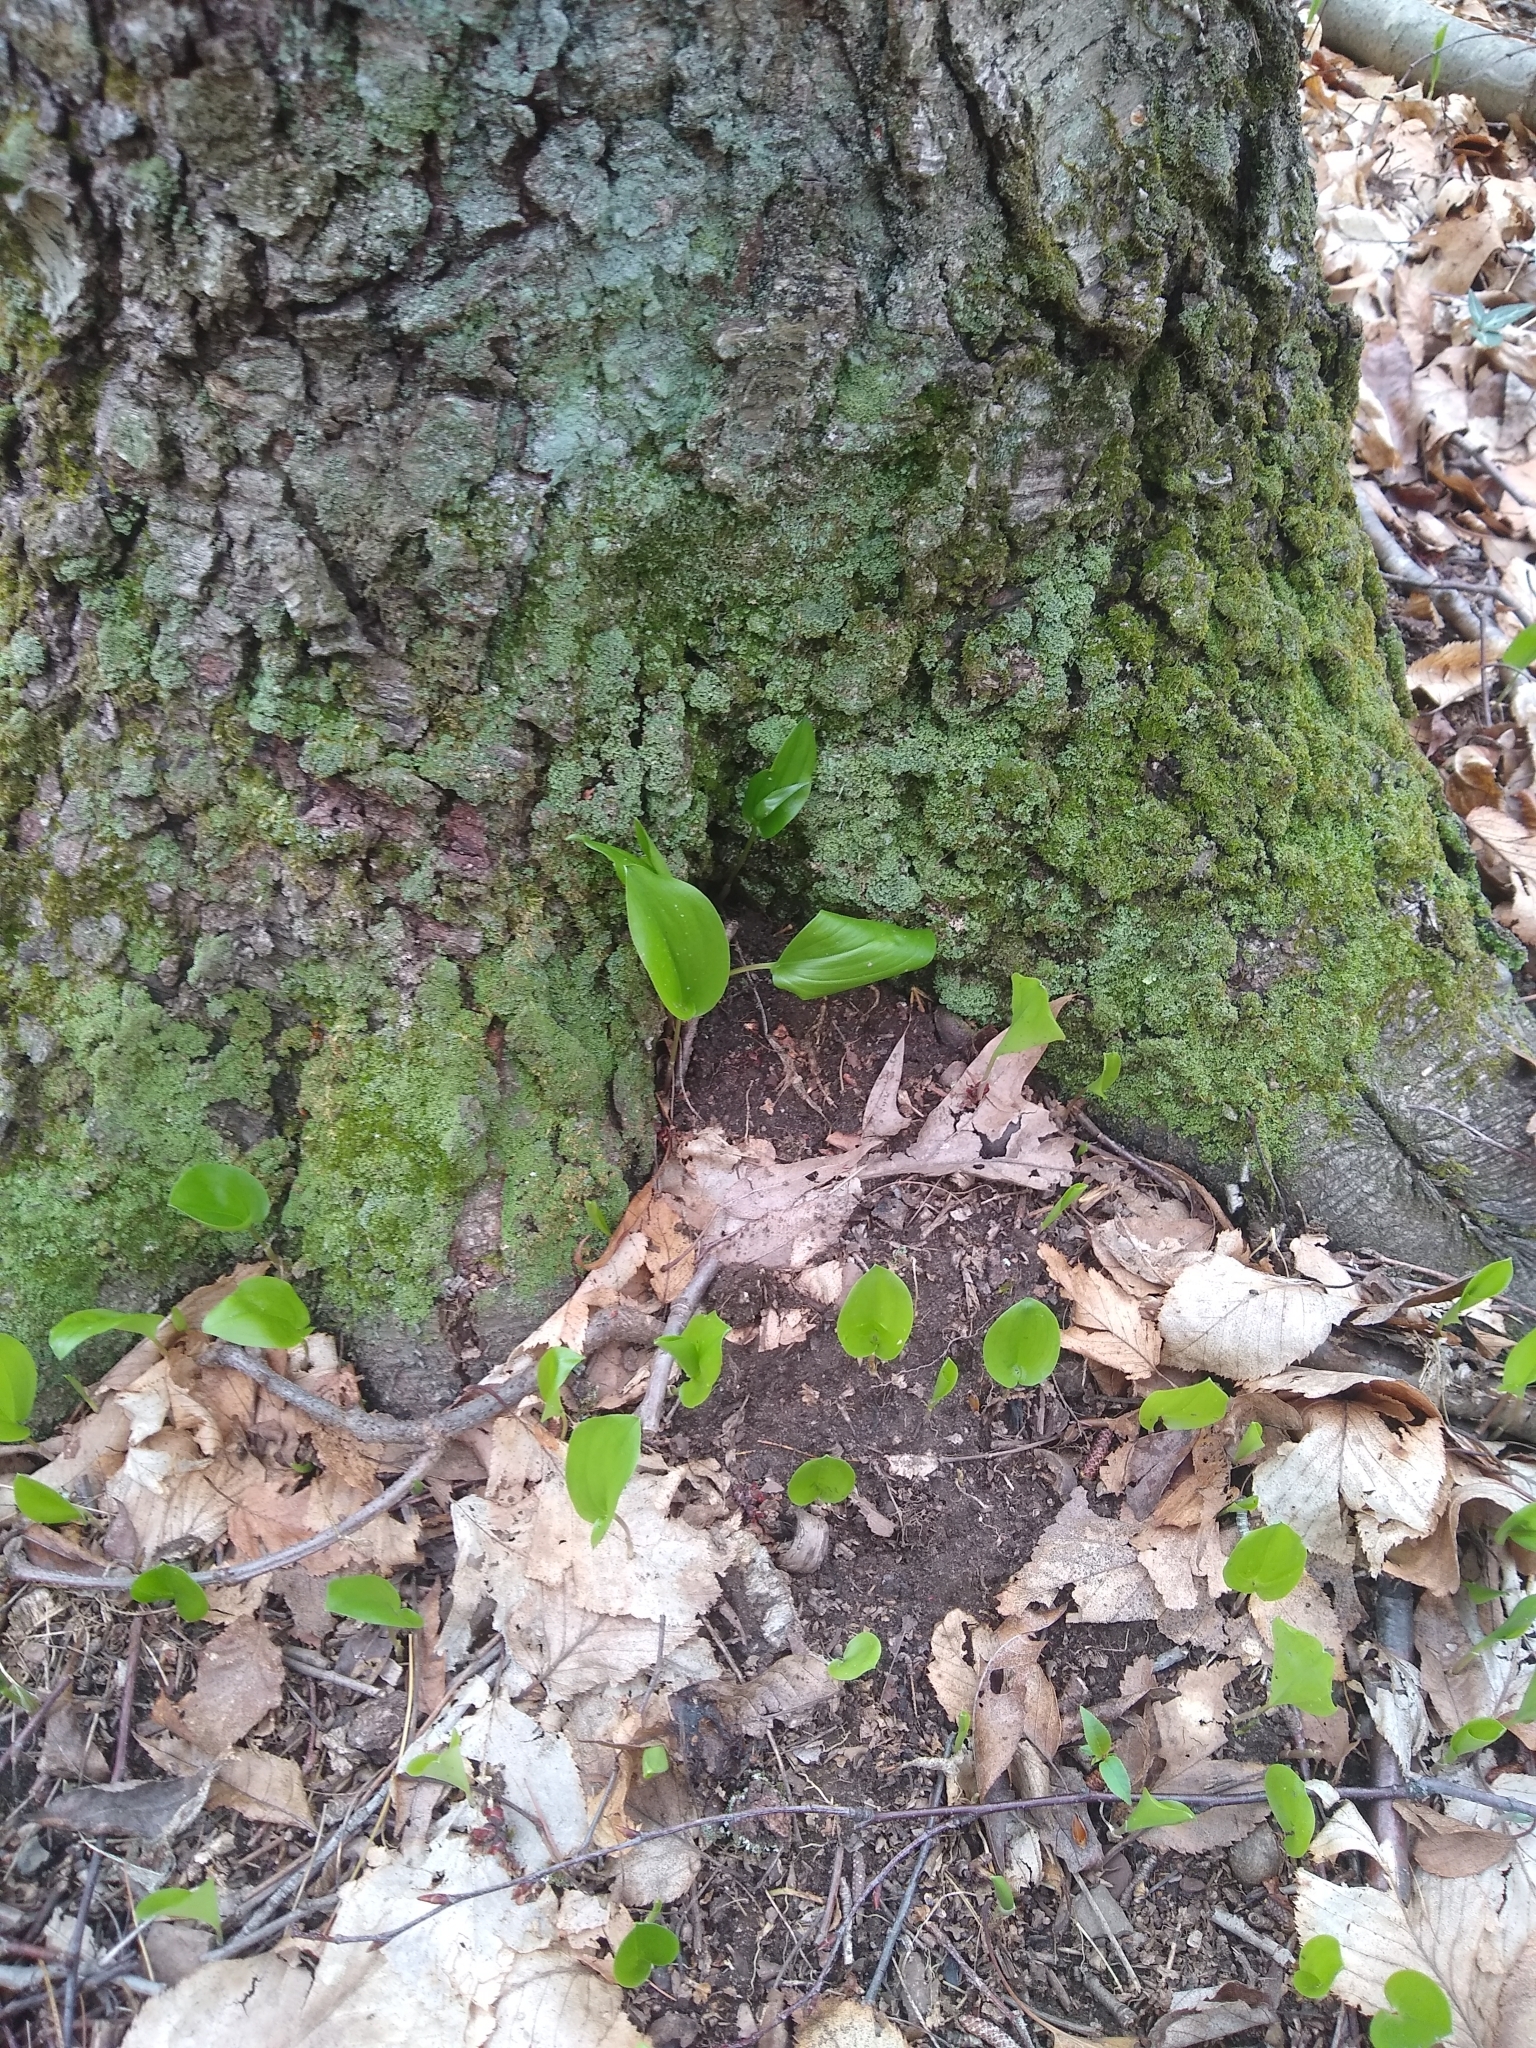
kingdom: Plantae
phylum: Tracheophyta
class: Liliopsida
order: Asparagales
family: Asparagaceae
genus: Maianthemum
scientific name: Maianthemum canadense
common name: False lily-of-the-valley
